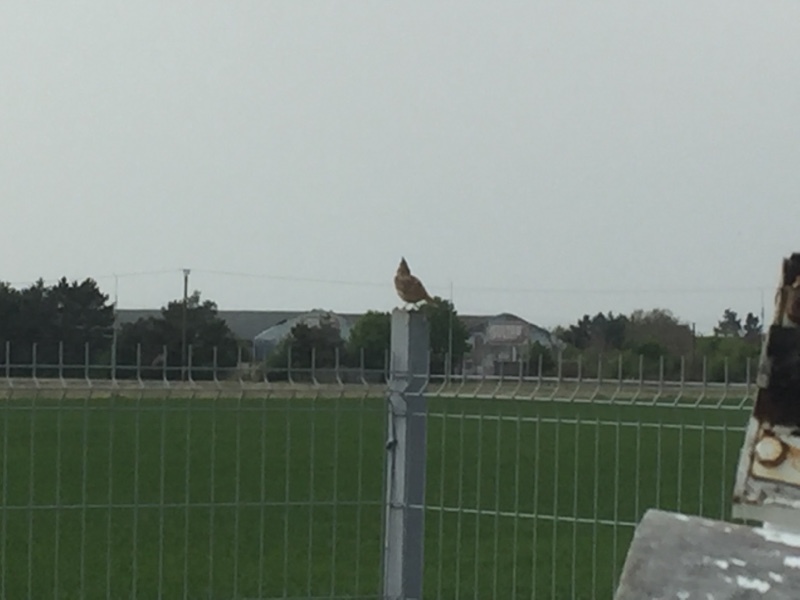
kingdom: Animalia
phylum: Chordata
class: Aves
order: Passeriformes
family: Alaudidae
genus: Galerida
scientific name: Galerida cristata
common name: Crested lark
